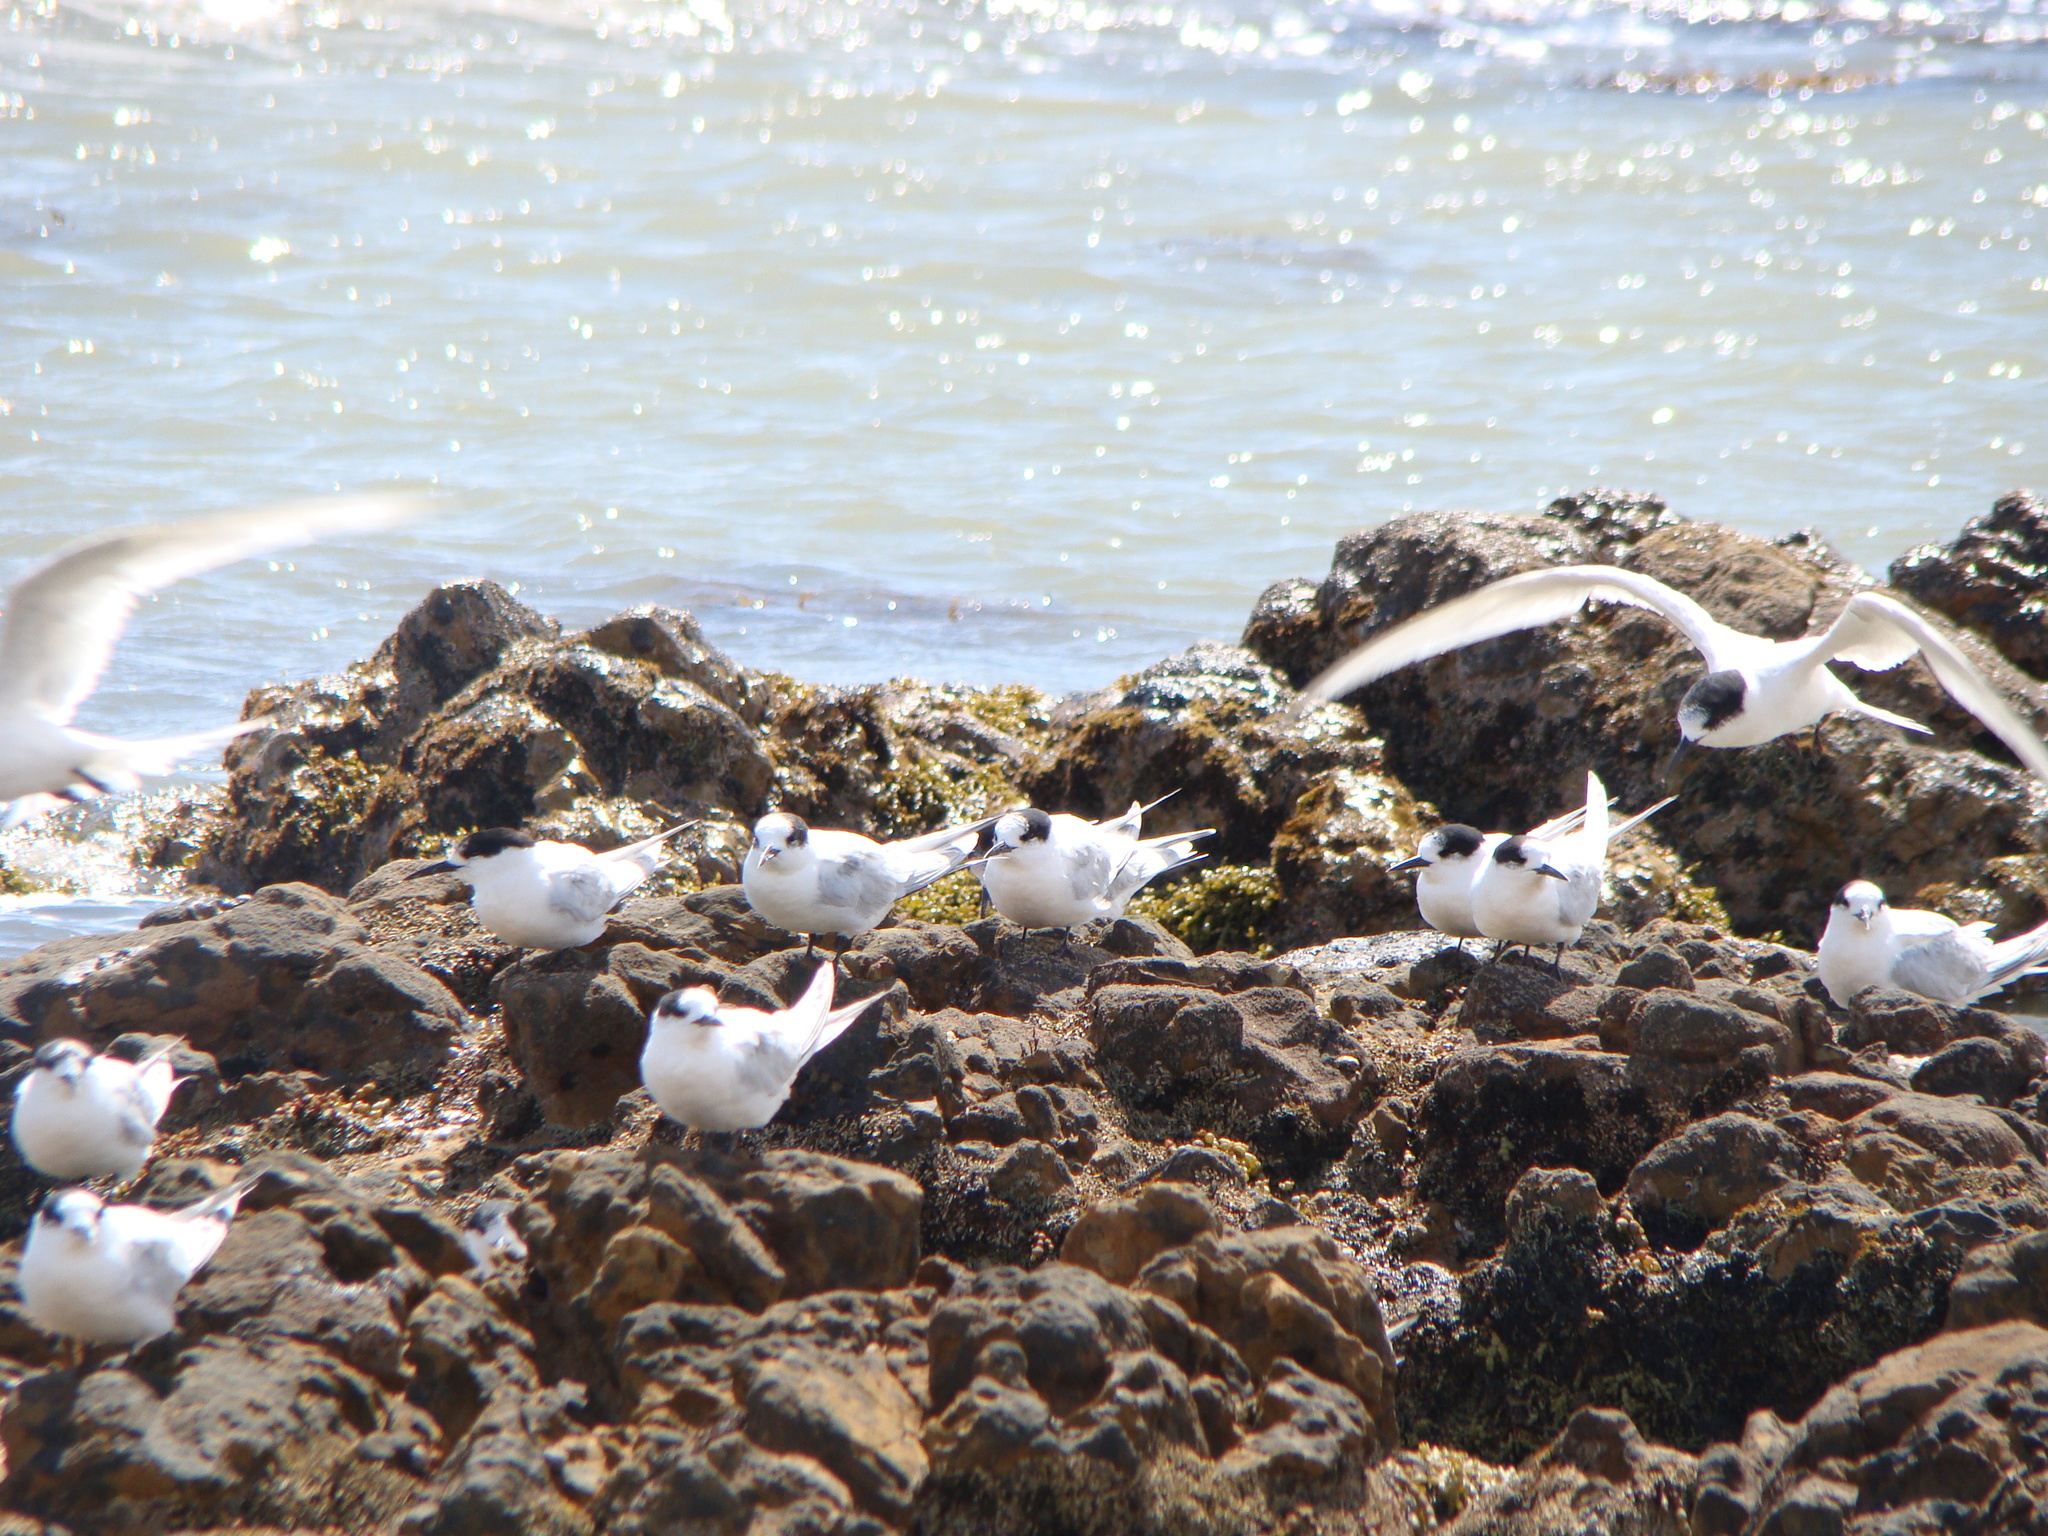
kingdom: Animalia
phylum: Chordata
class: Aves
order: Charadriiformes
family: Laridae
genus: Sterna
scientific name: Sterna striata
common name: White-fronted tern
